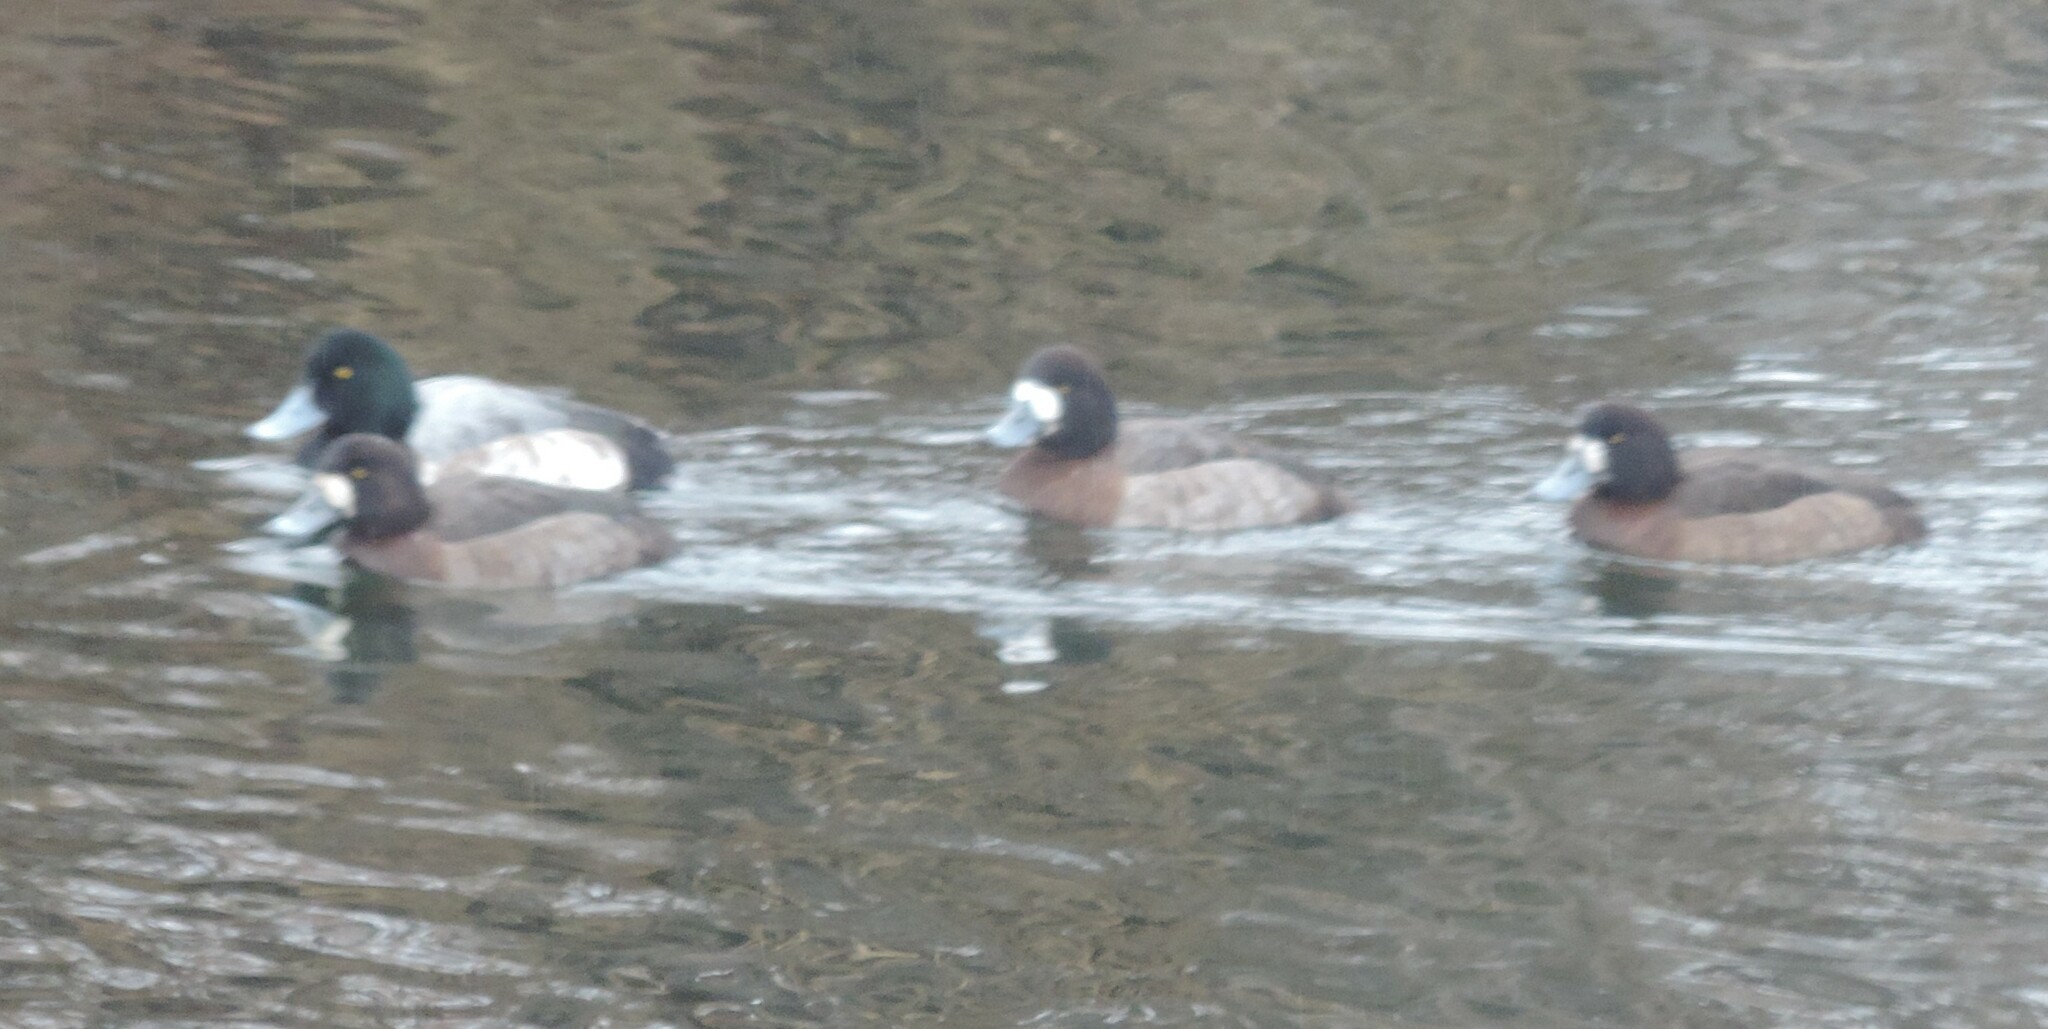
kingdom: Animalia
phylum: Chordata
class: Aves
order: Anseriformes
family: Anatidae
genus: Aythya
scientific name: Aythya marila
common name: Greater scaup
